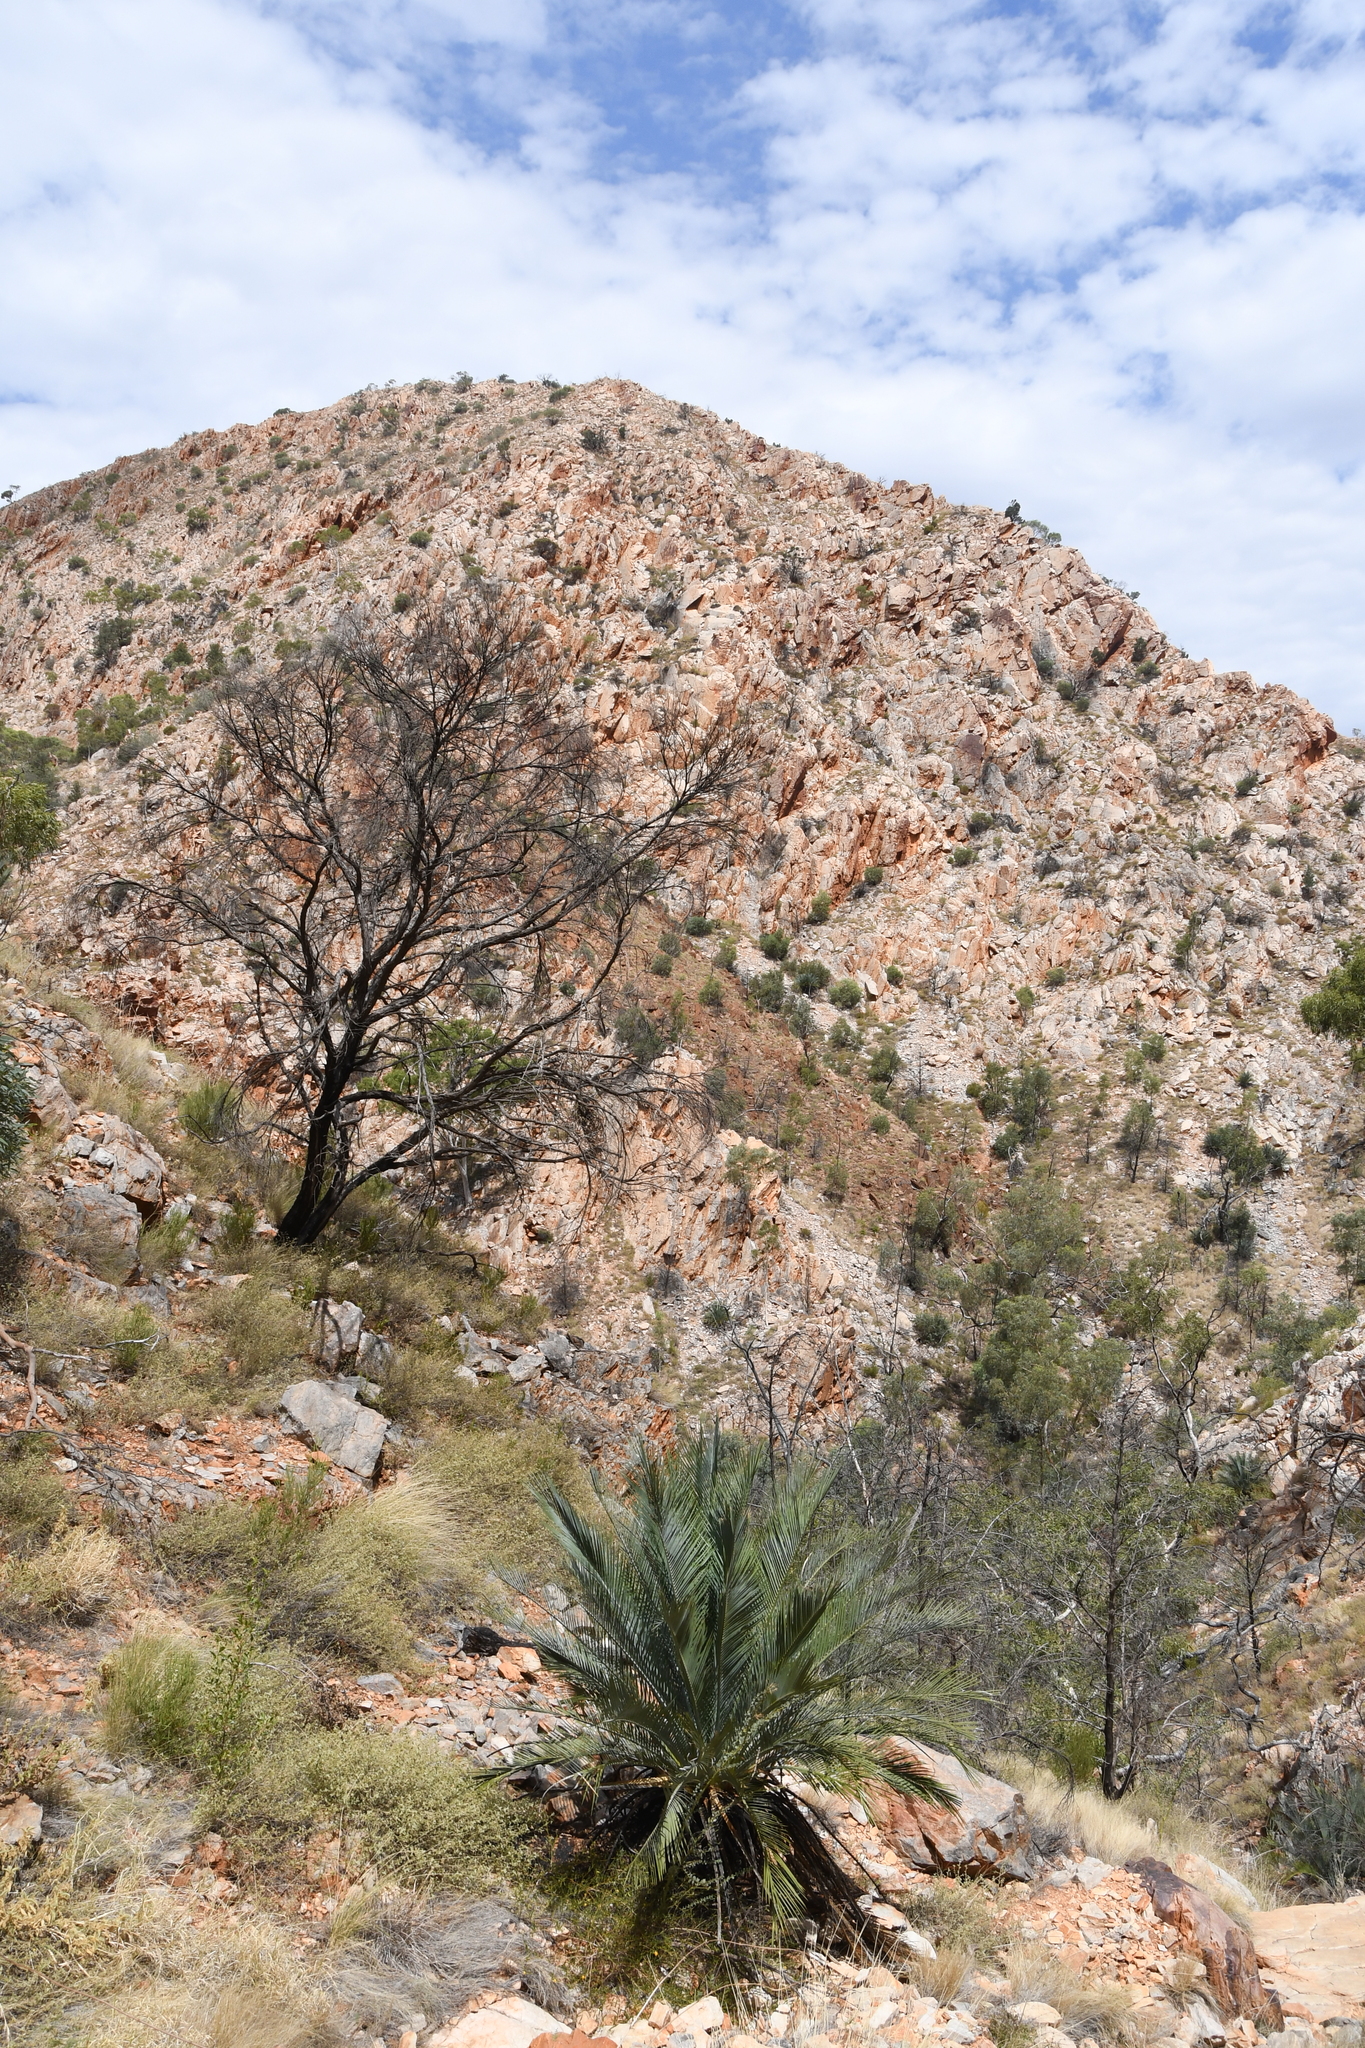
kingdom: Plantae
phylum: Tracheophyta
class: Cycadopsida
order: Cycadales
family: Zamiaceae
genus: Macrozamia
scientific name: Macrozamia macdonnellii
